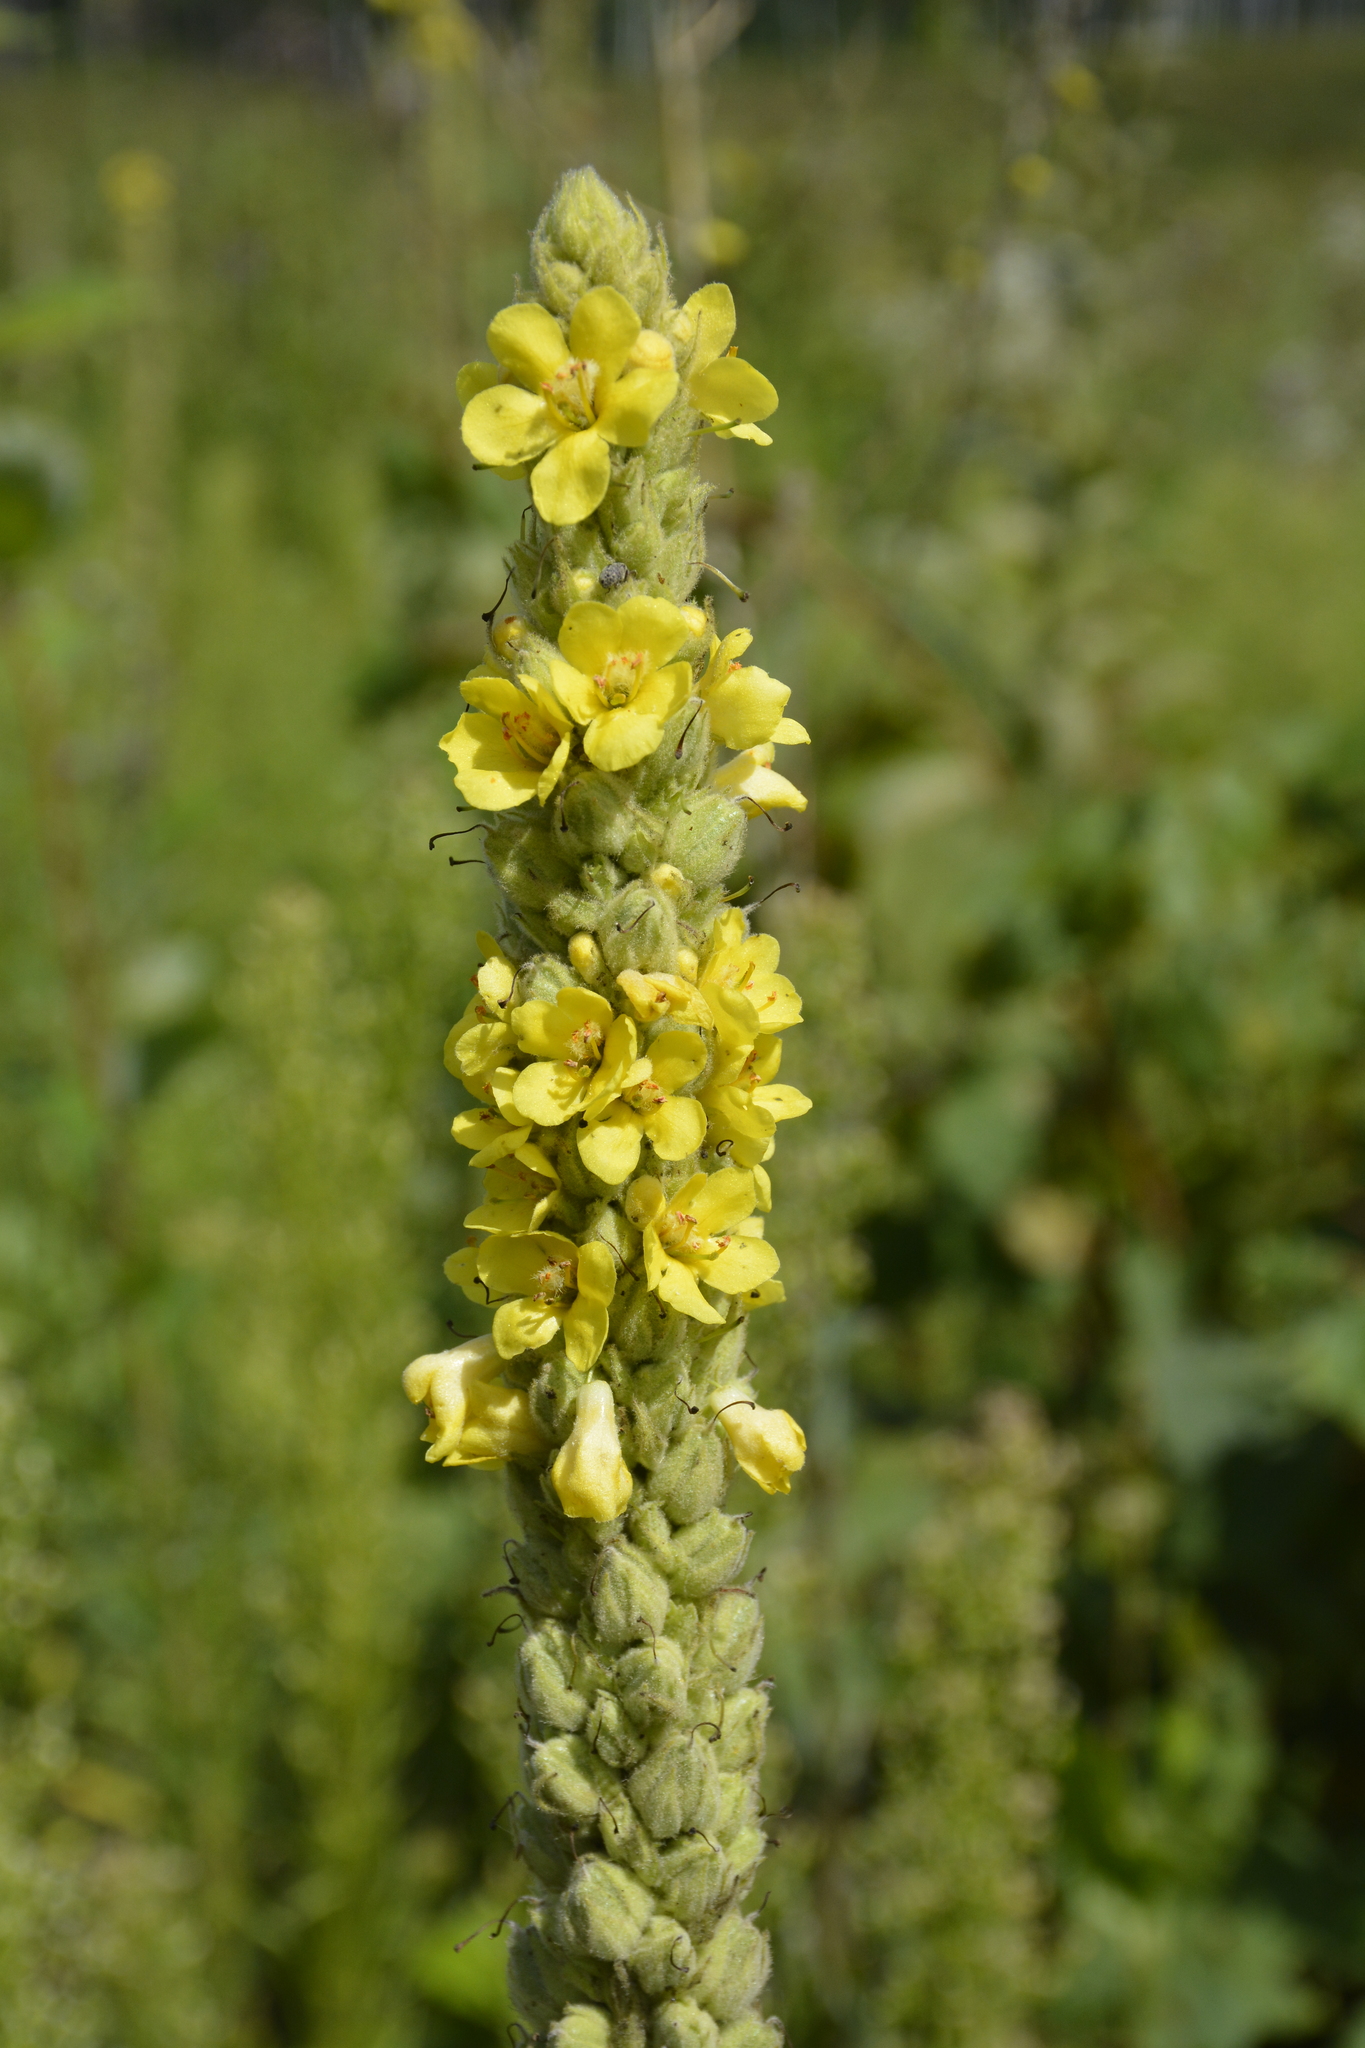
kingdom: Plantae
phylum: Tracheophyta
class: Magnoliopsida
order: Lamiales
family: Scrophulariaceae
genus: Verbascum
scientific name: Verbascum thapsus
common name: Common mullein
